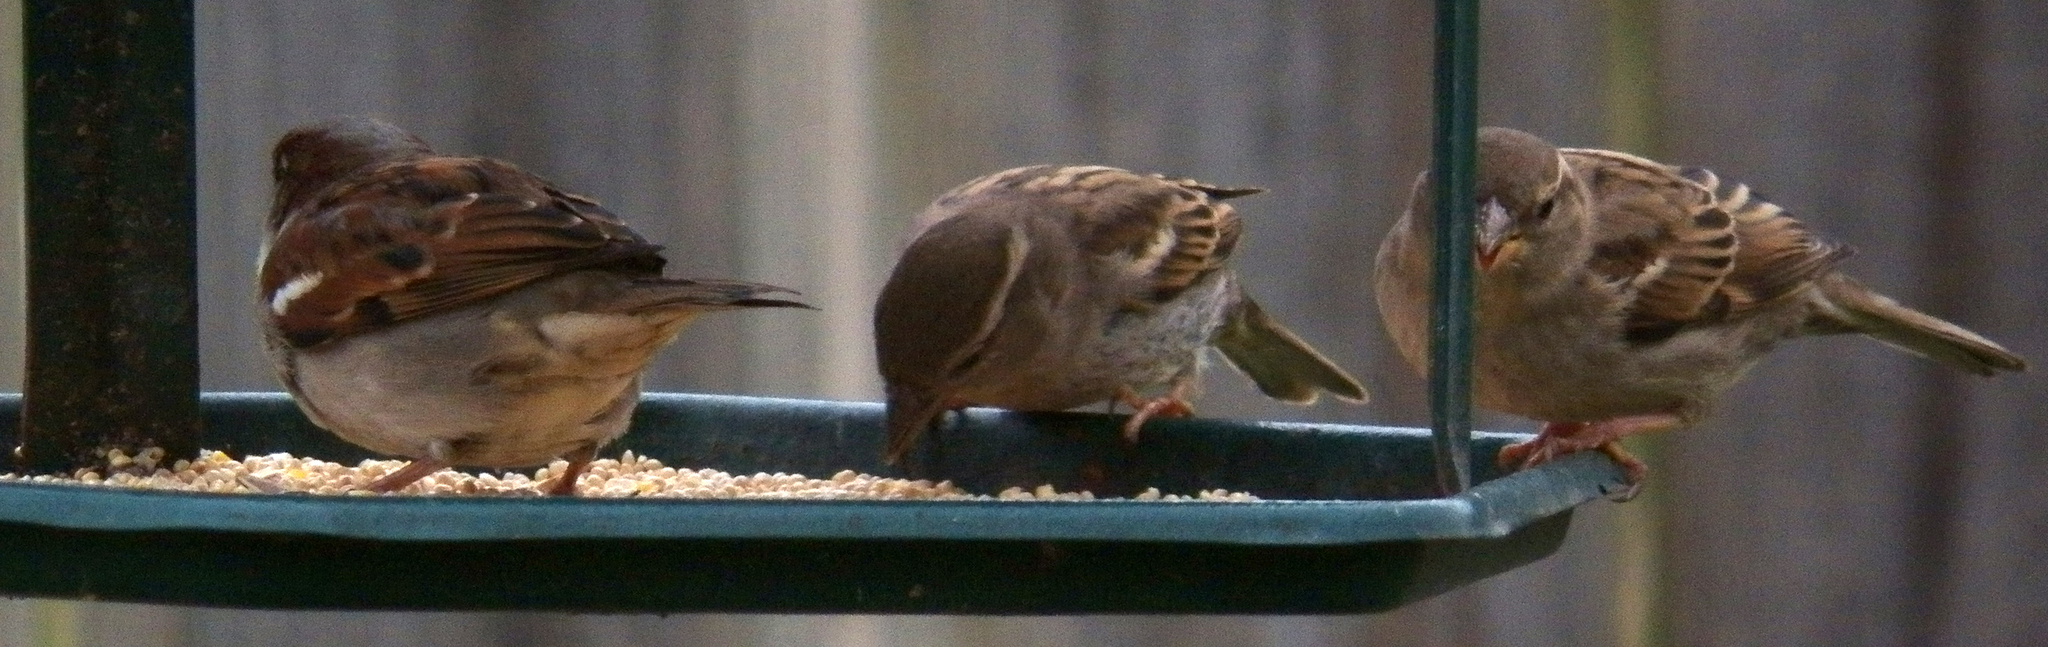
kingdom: Animalia
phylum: Chordata
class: Aves
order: Passeriformes
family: Passeridae
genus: Passer
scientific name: Passer domesticus
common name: House sparrow
